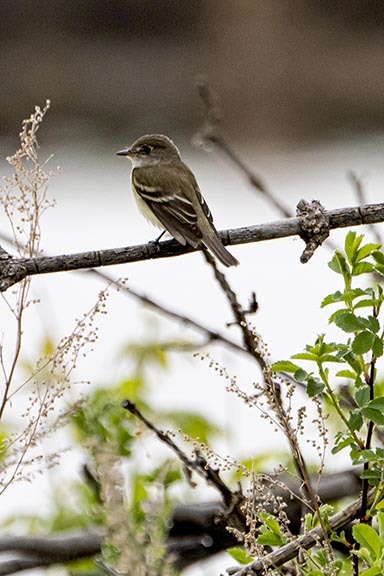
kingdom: Animalia
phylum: Chordata
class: Aves
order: Passeriformes
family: Tyrannidae
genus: Empidonax
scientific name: Empidonax minimus
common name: Least flycatcher
